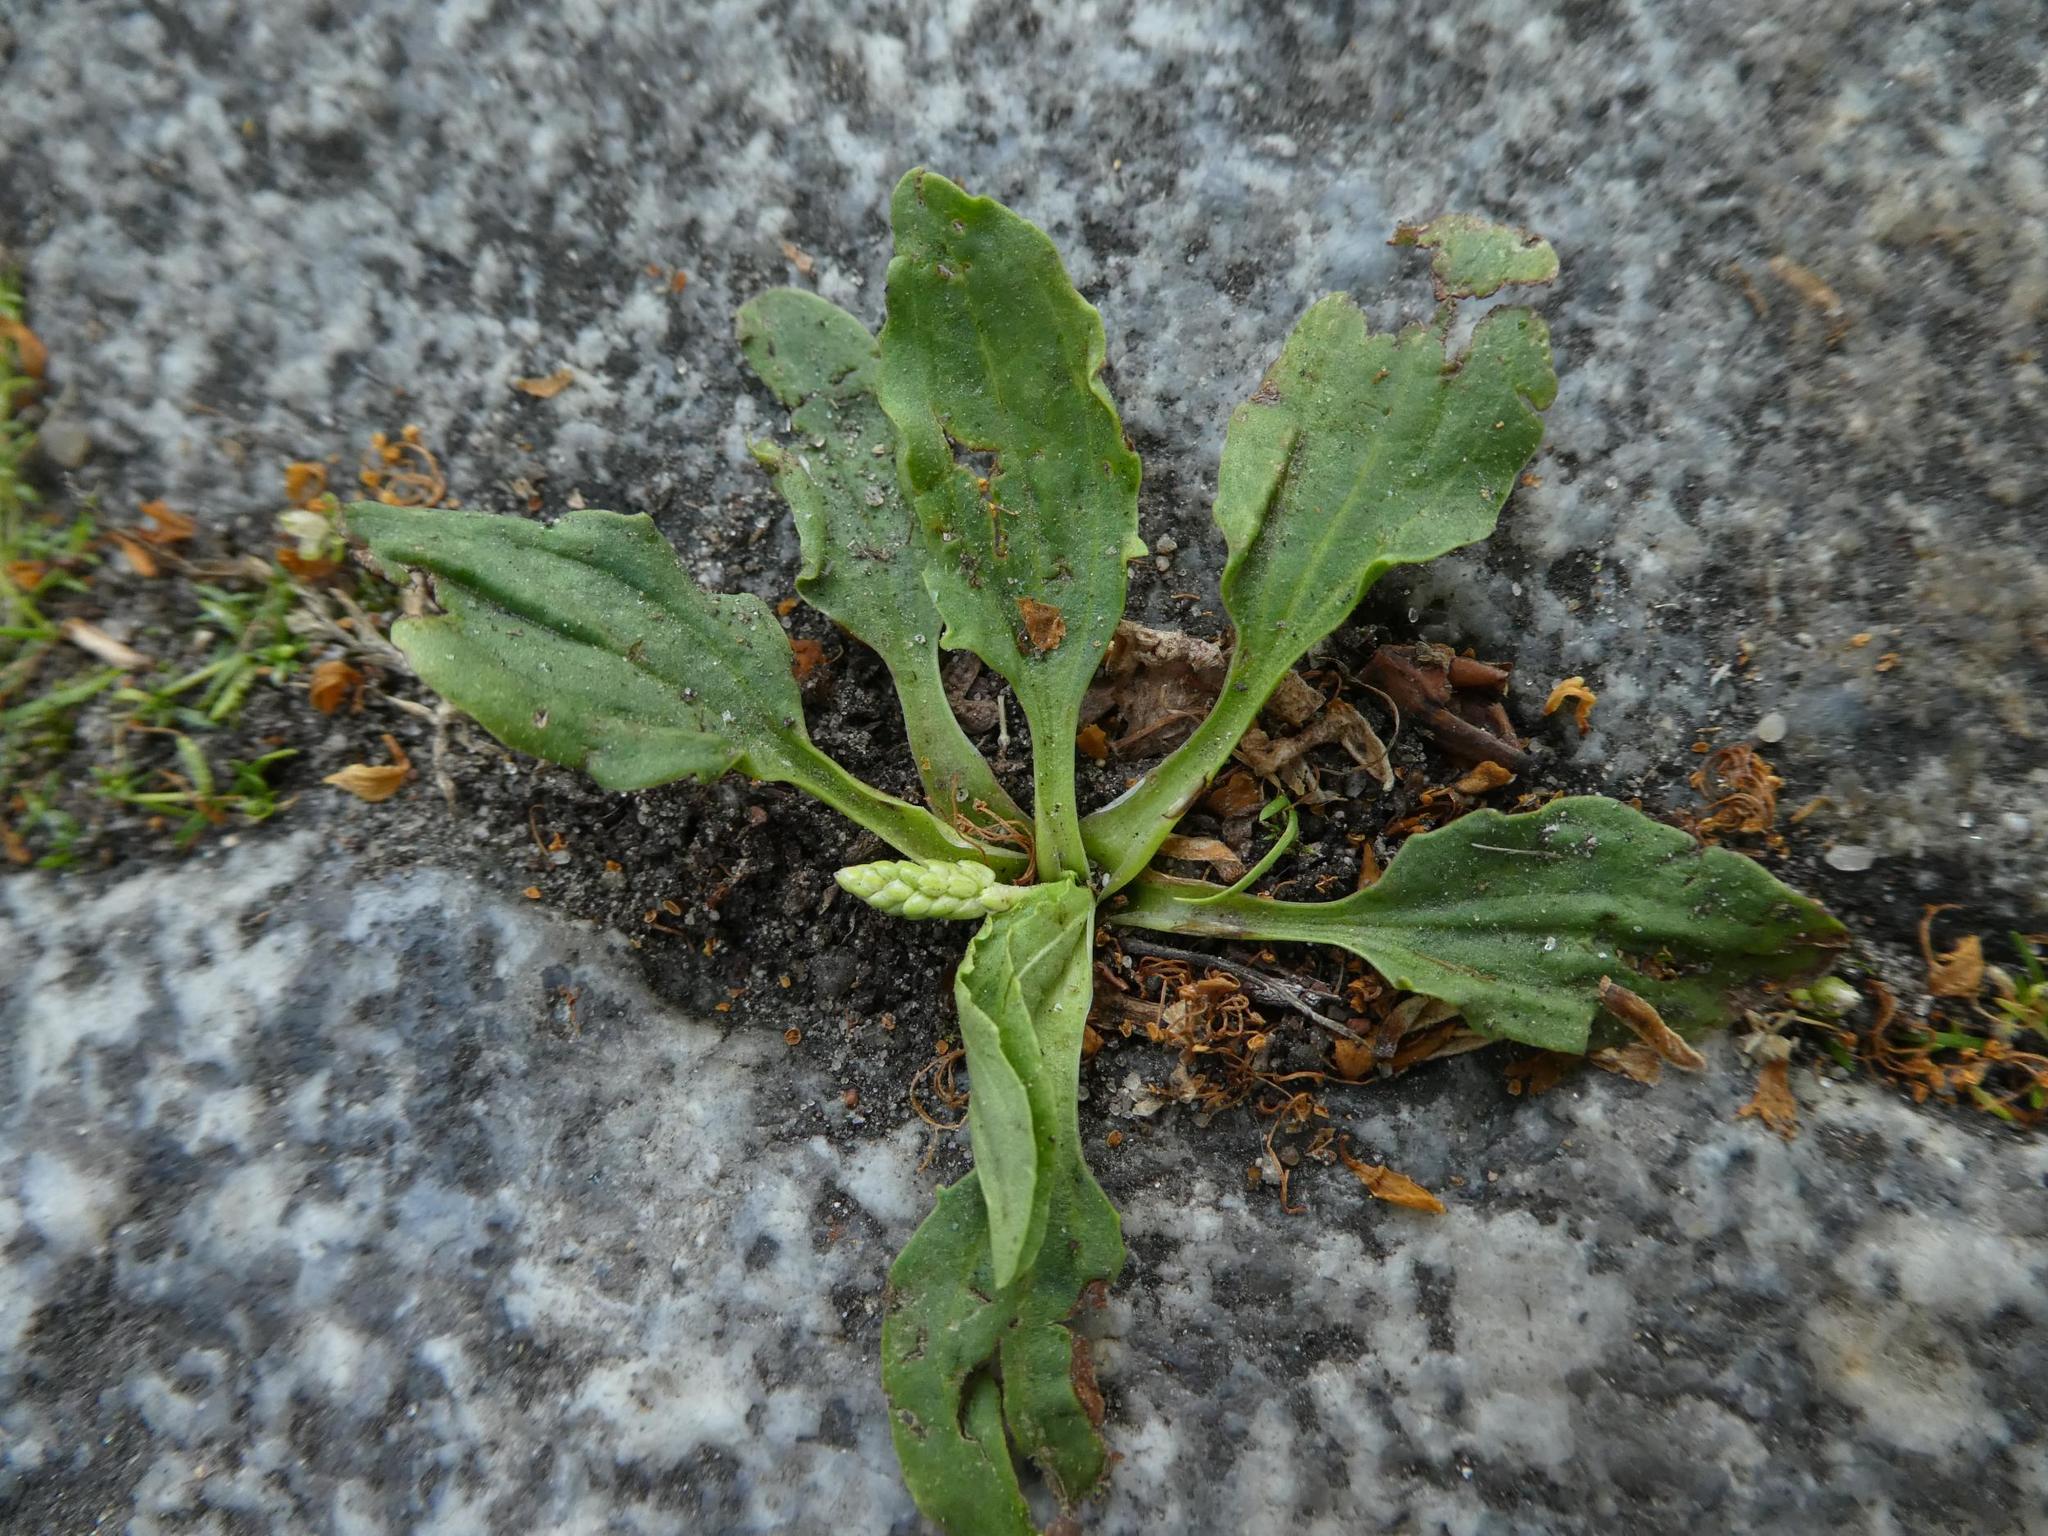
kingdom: Plantae
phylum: Tracheophyta
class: Magnoliopsida
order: Lamiales
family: Plantaginaceae
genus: Plantago
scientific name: Plantago major
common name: Common plantain
